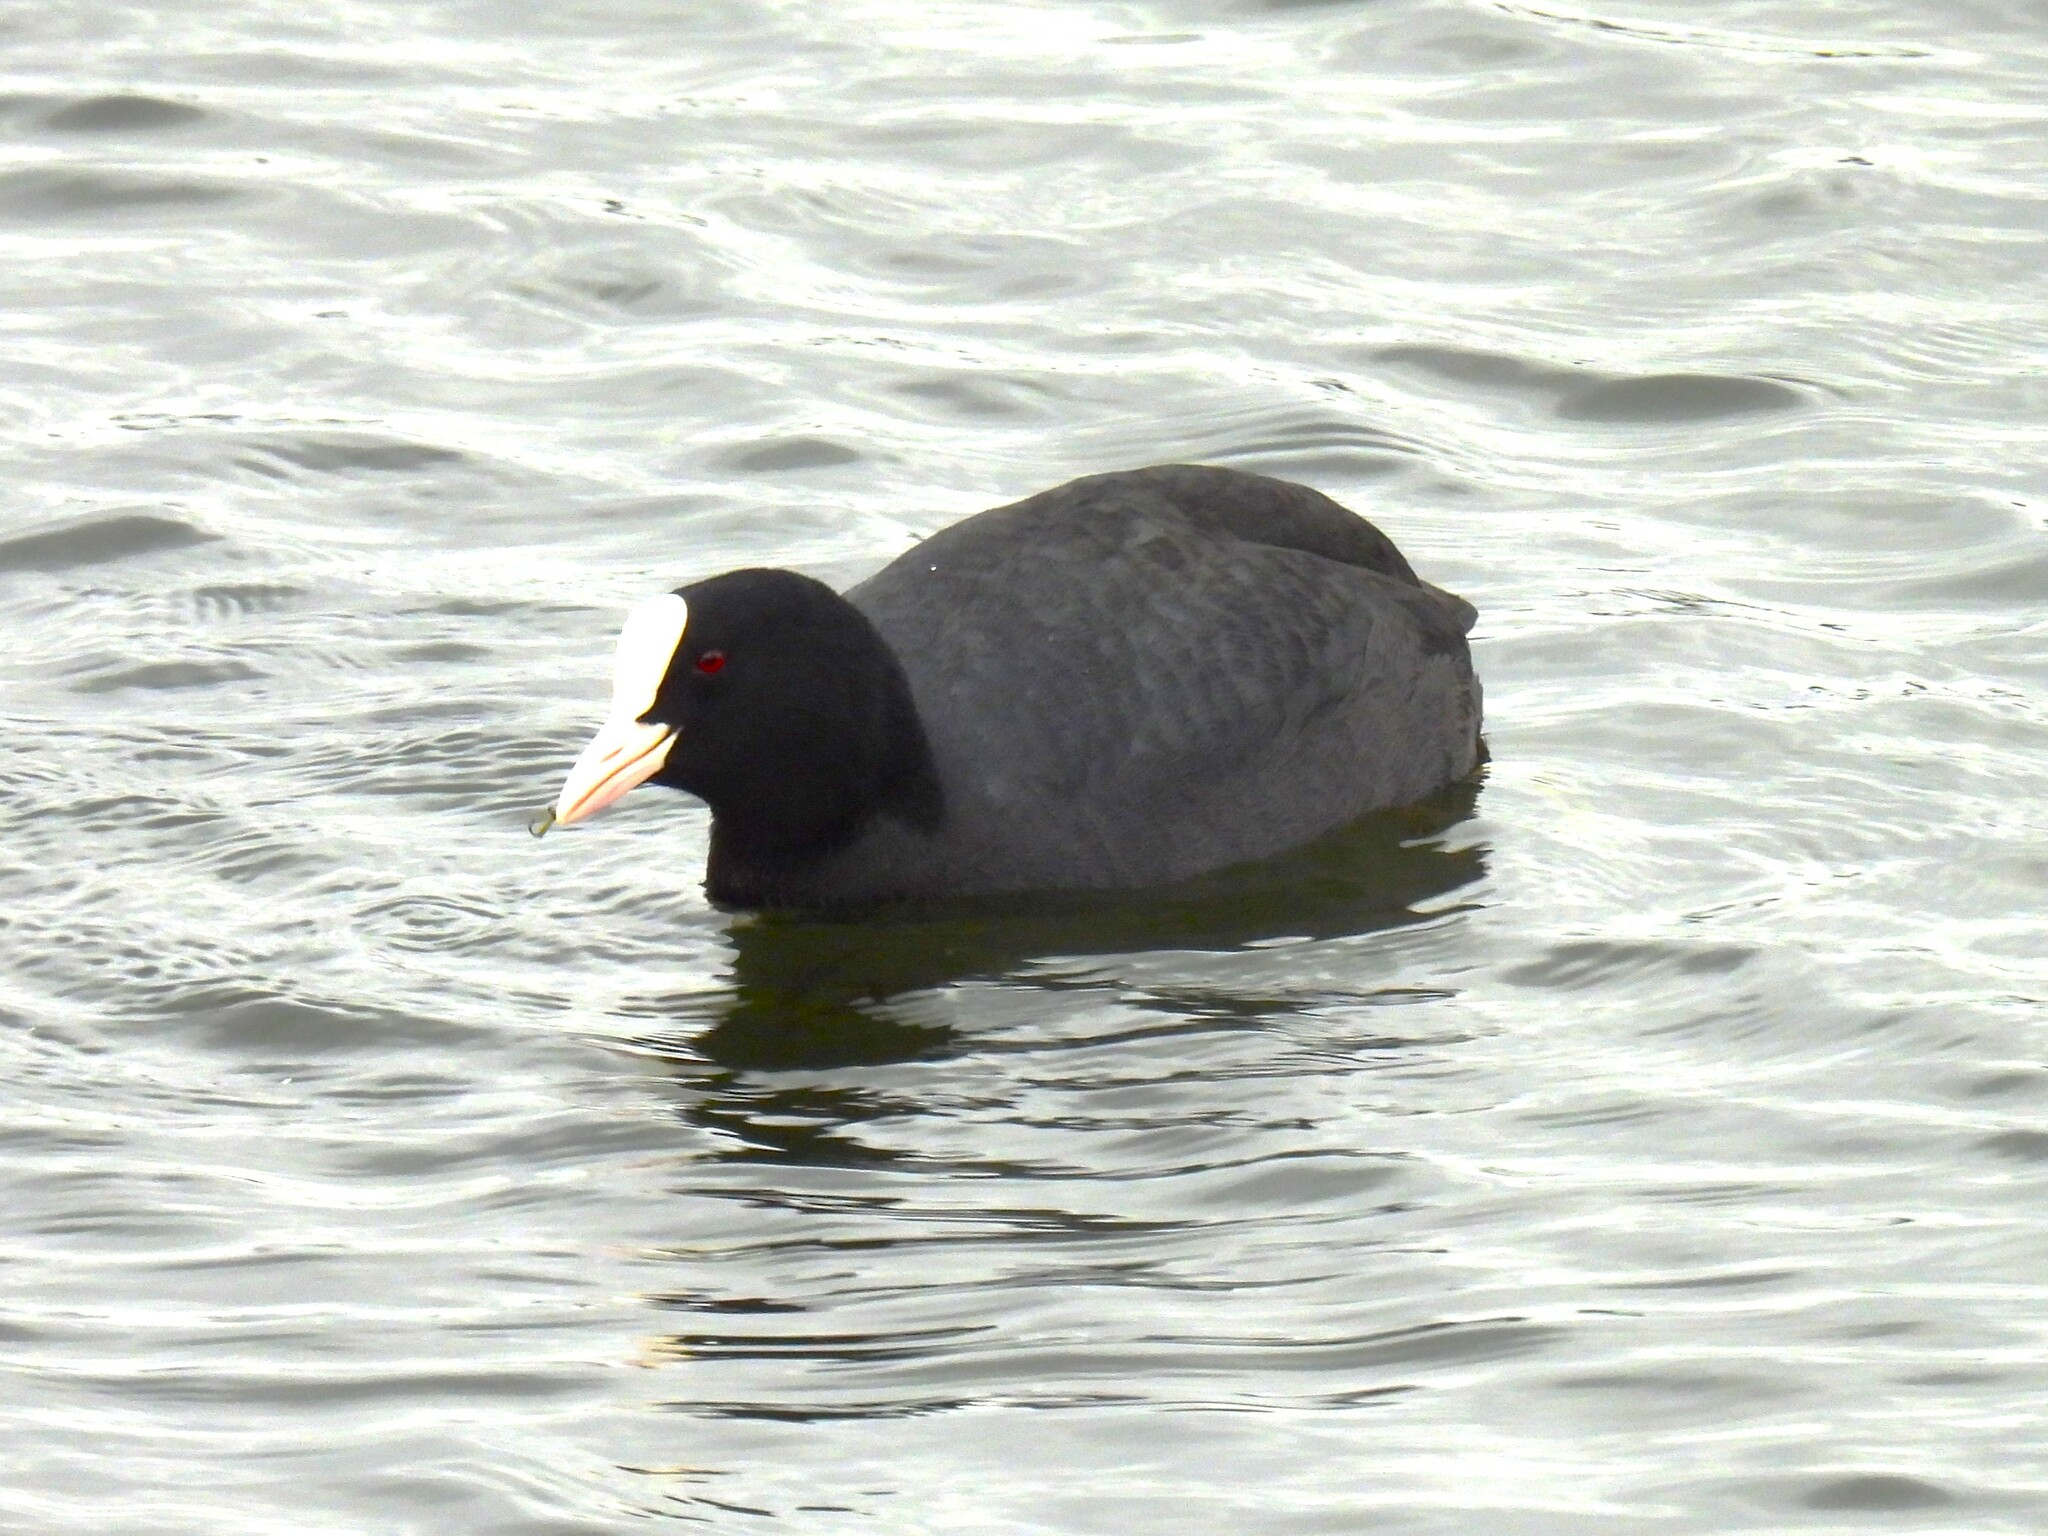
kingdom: Animalia
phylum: Chordata
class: Aves
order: Gruiformes
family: Rallidae
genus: Fulica
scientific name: Fulica atra
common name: Eurasian coot
